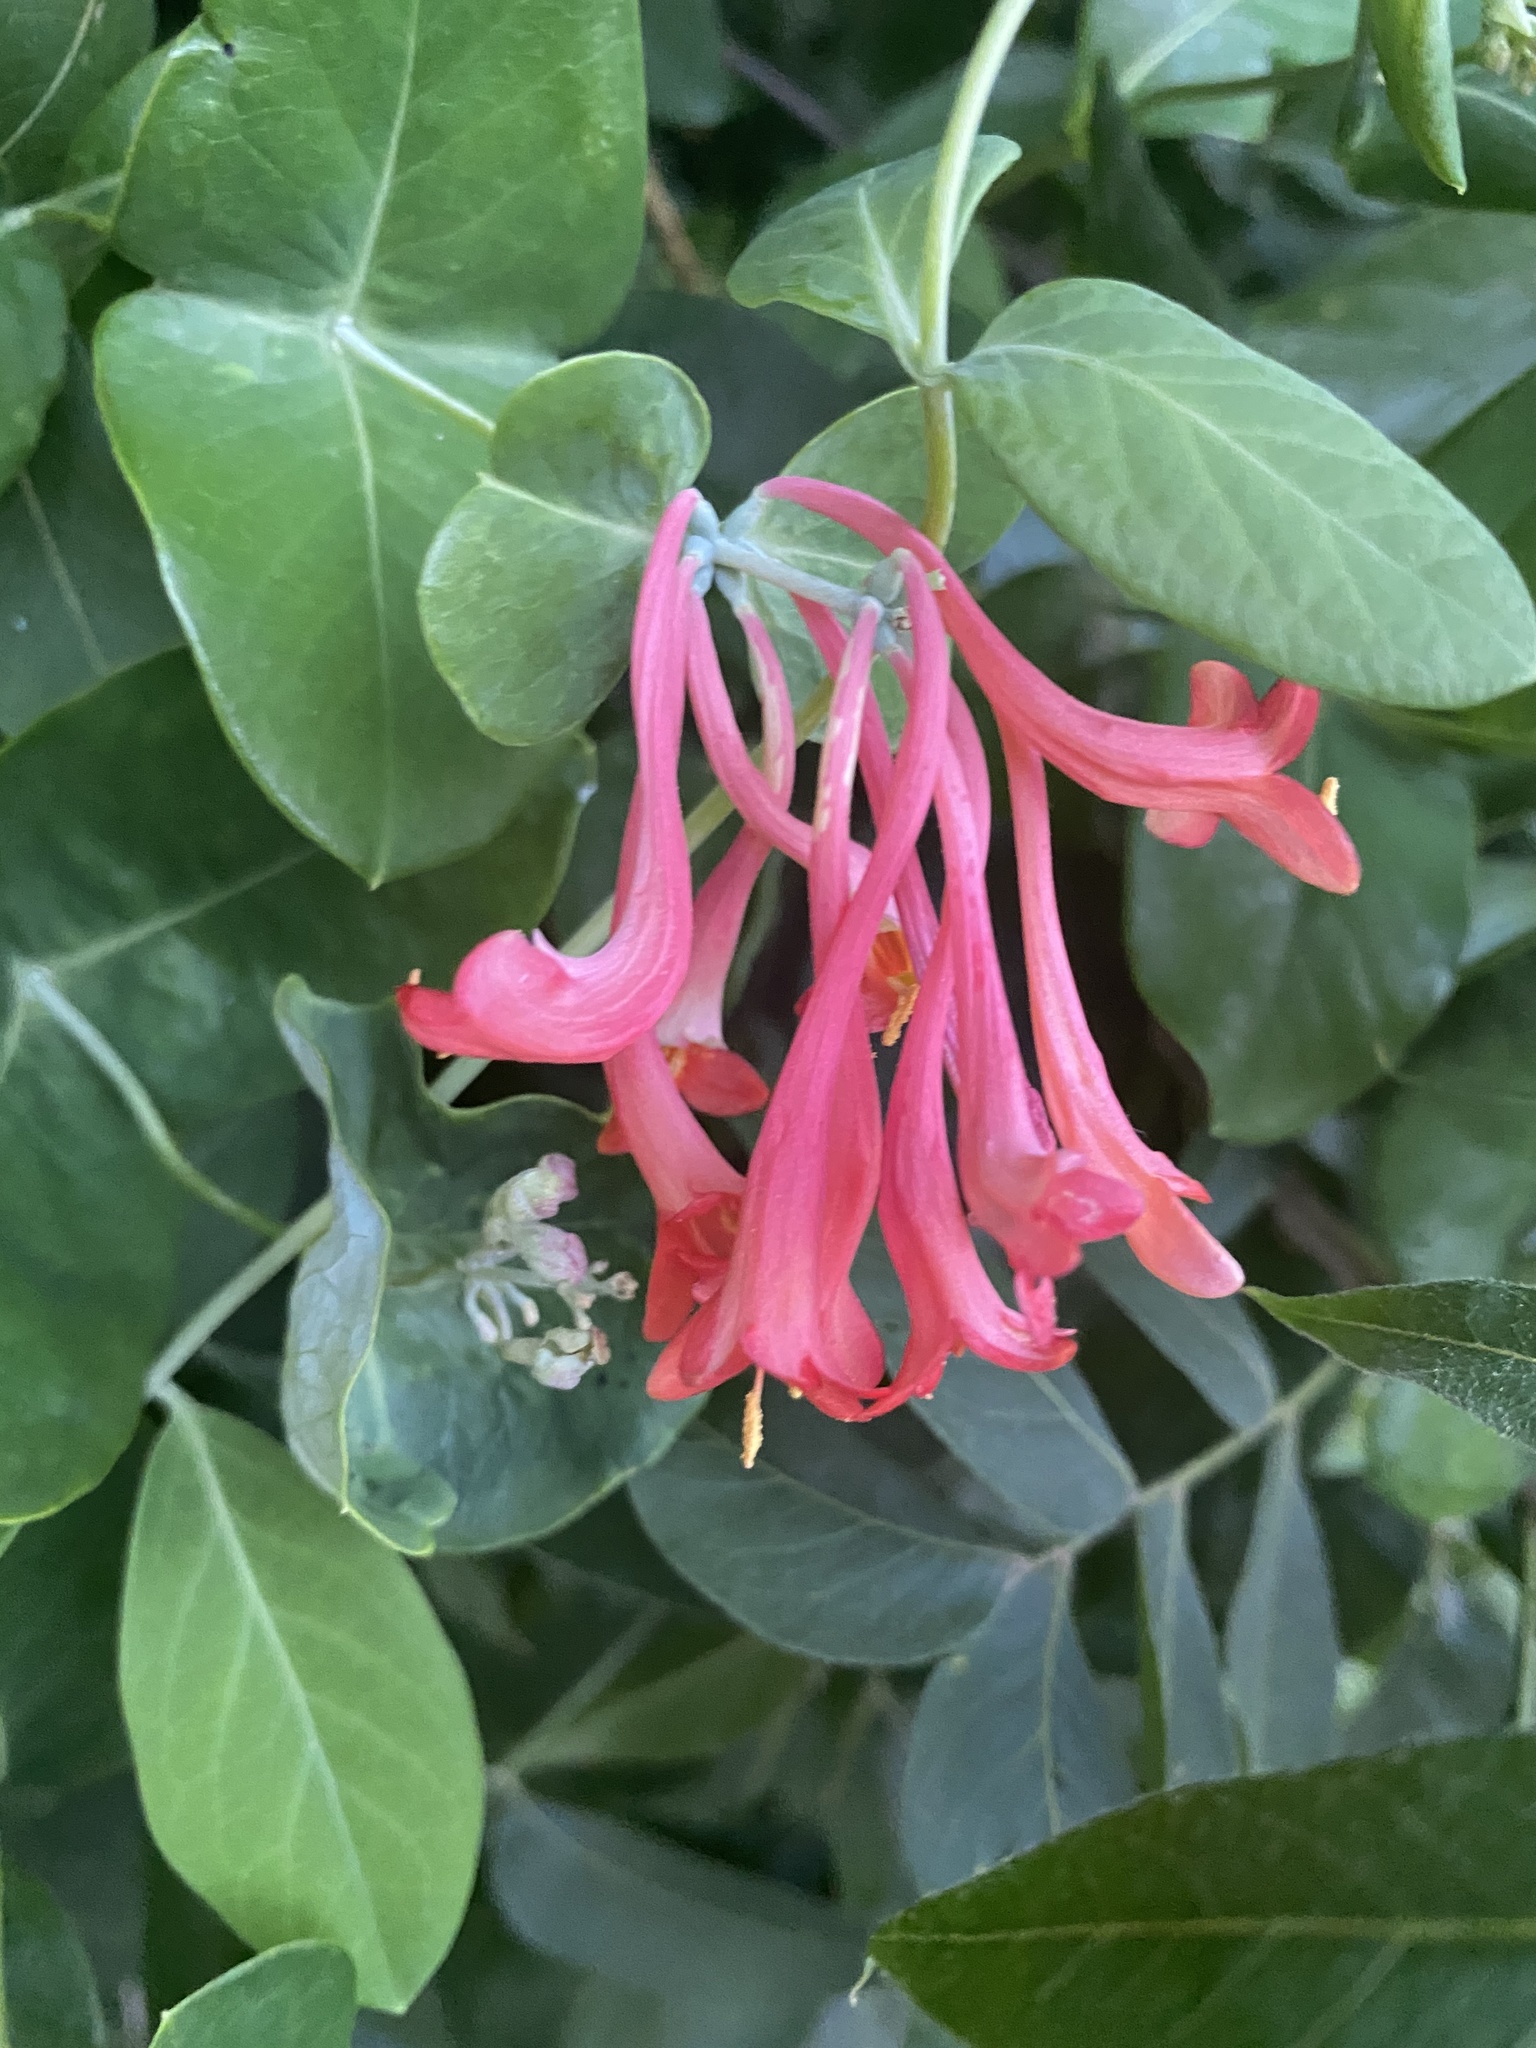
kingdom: Plantae
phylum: Tracheophyta
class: Magnoliopsida
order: Dipsacales
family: Caprifoliaceae
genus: Lonicera
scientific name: Lonicera sempervirens
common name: Coral honeysuckle
